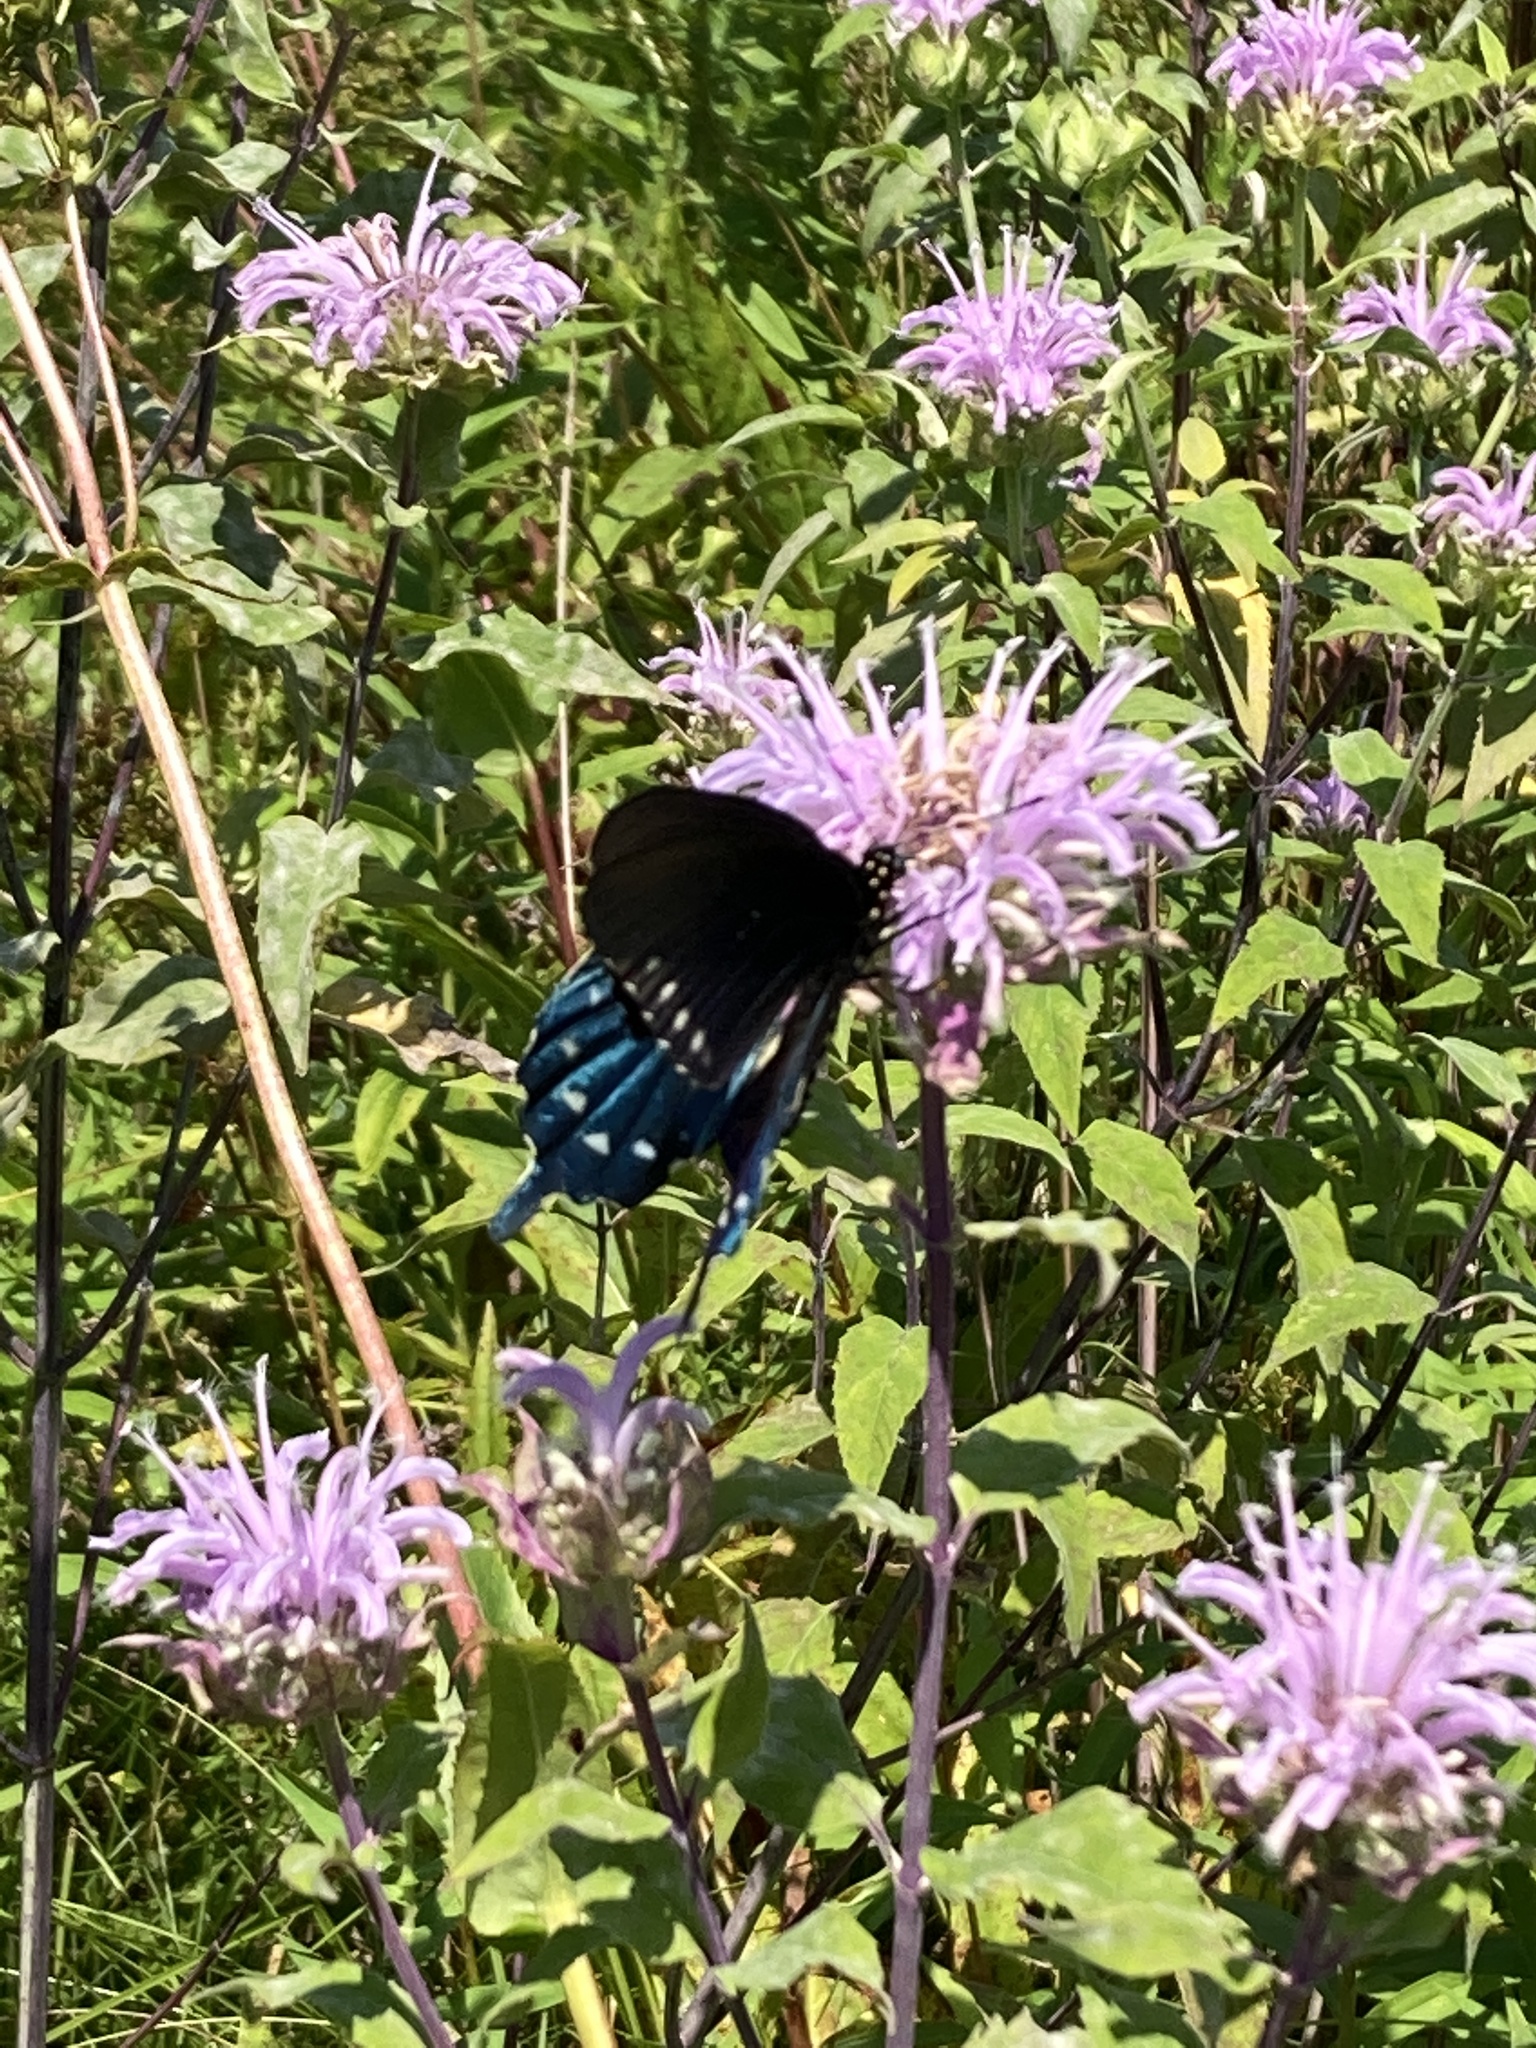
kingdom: Animalia
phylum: Arthropoda
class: Insecta
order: Lepidoptera
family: Papilionidae
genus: Battus
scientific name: Battus philenor
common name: Pipevine swallowtail
